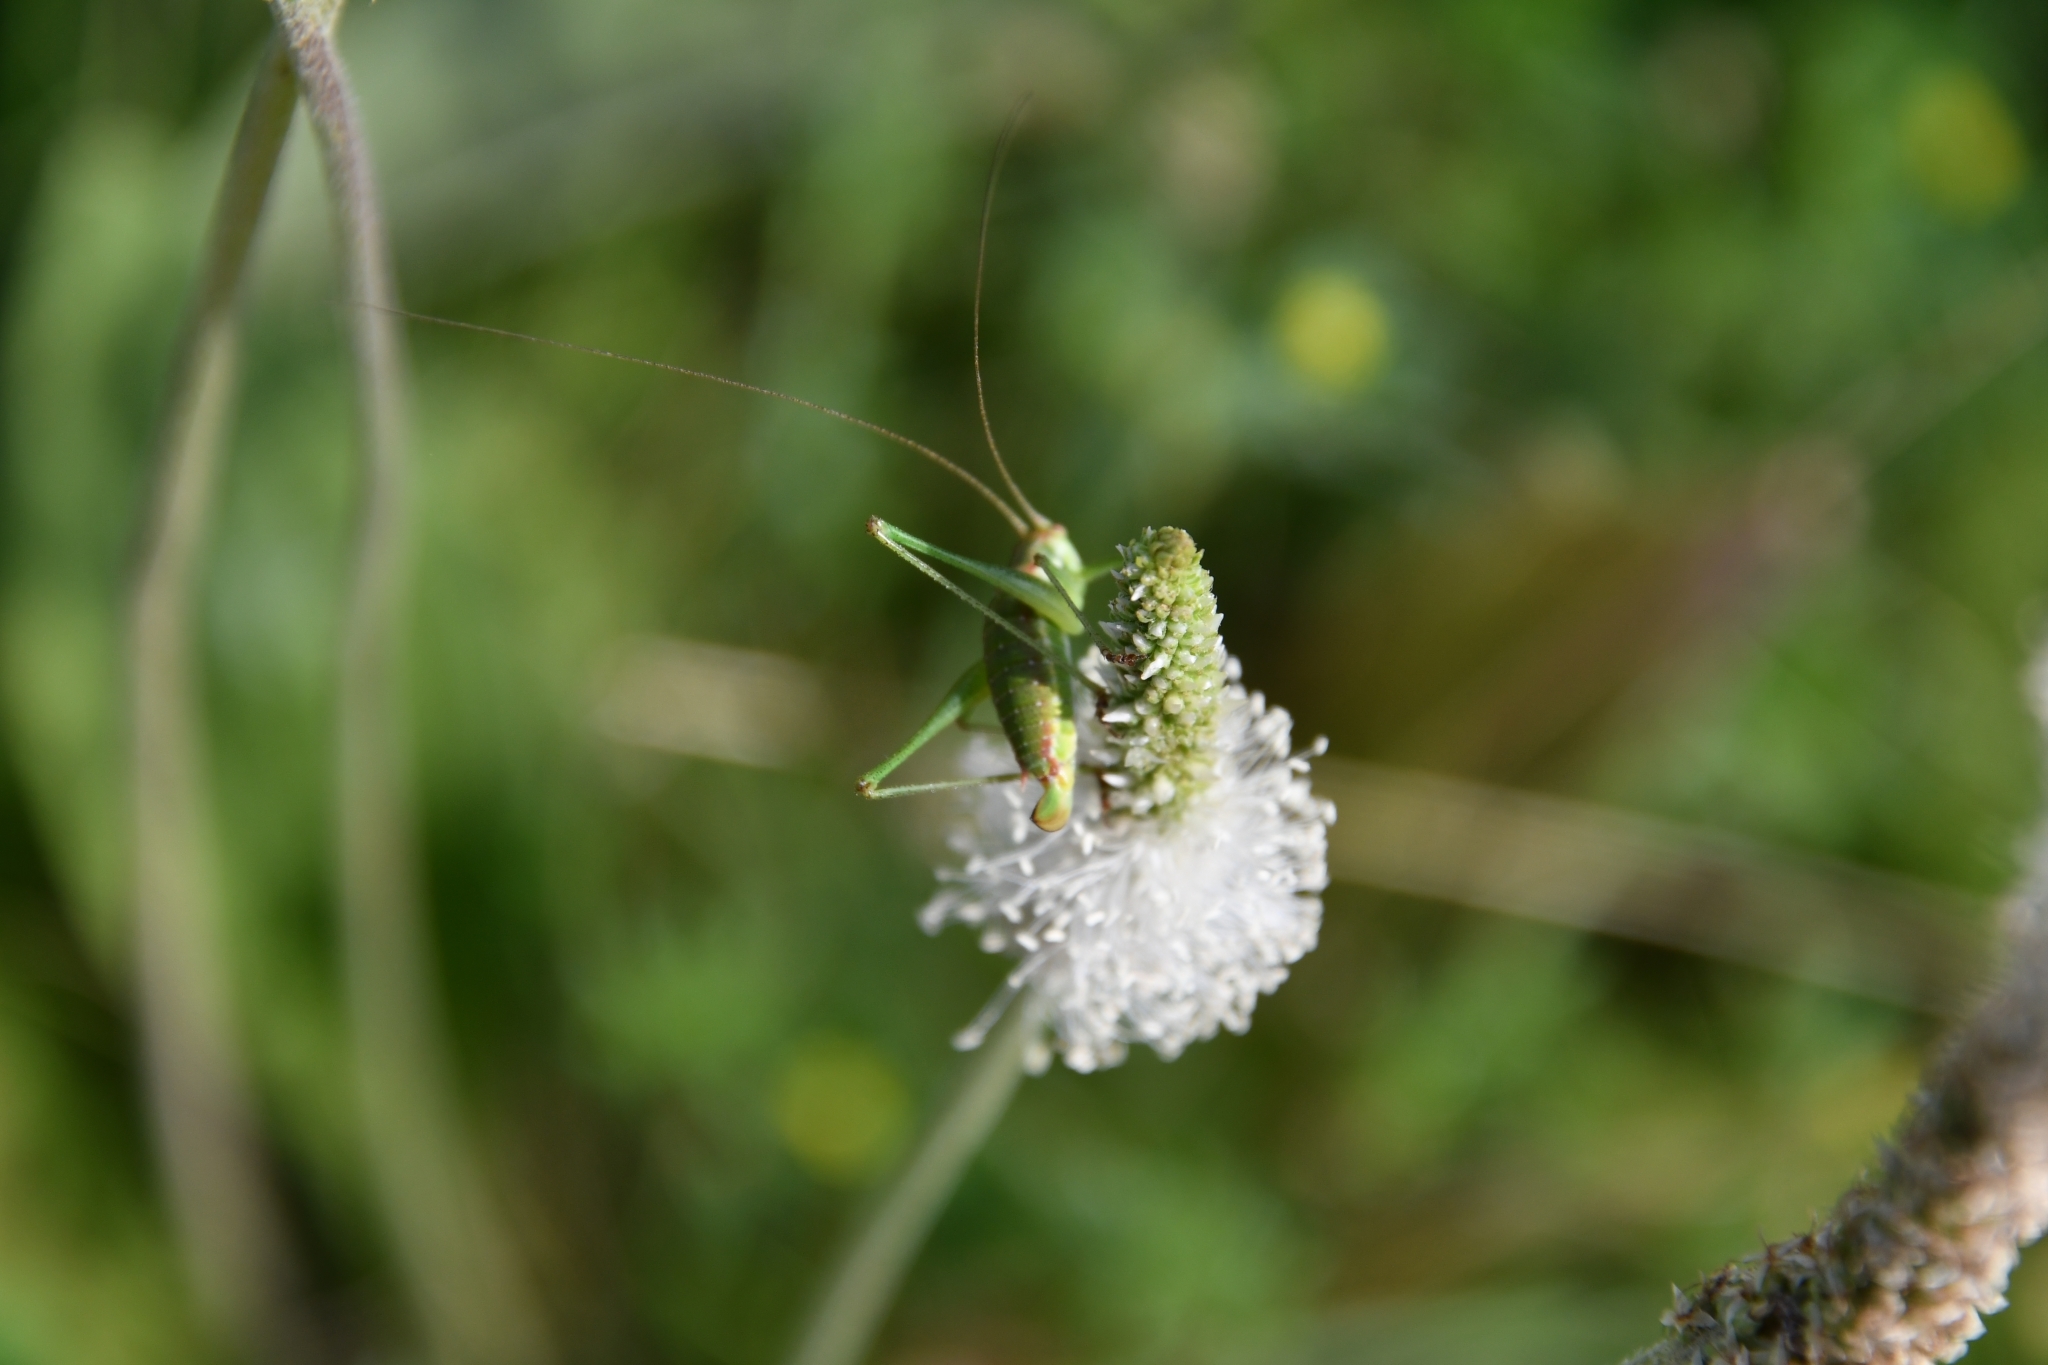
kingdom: Animalia
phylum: Arthropoda
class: Insecta
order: Orthoptera
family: Tettigoniidae
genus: Leptophyes
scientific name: Leptophyes albovittata
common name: Striped bush-cricket
